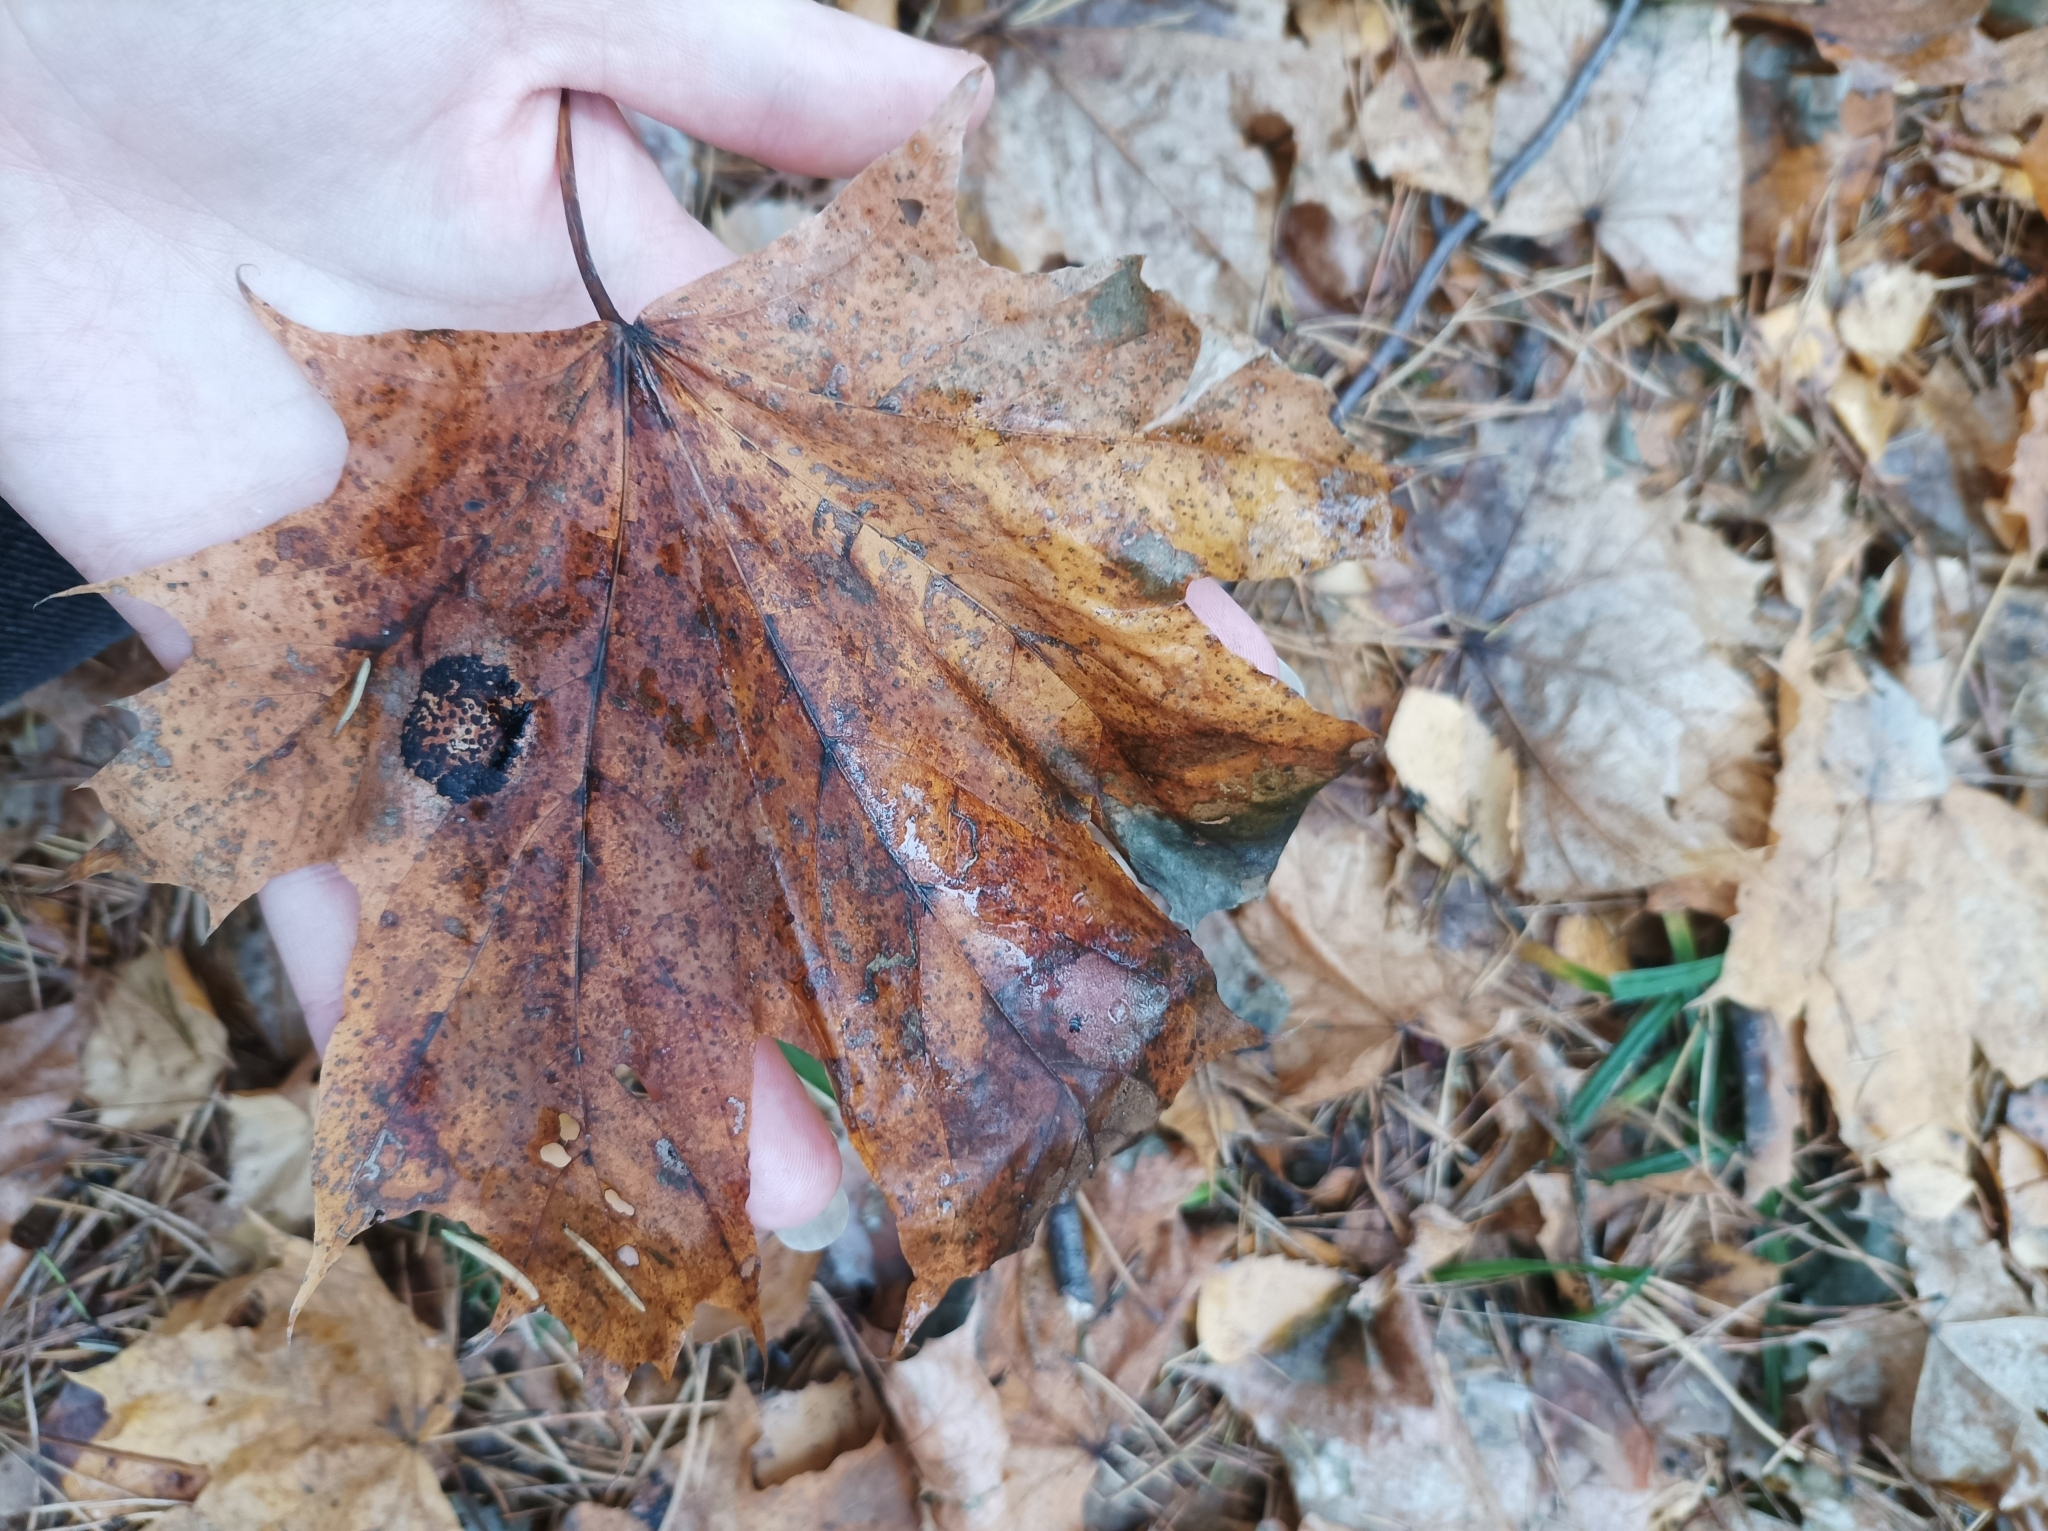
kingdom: Fungi
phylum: Ascomycota
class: Leotiomycetes
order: Rhytismatales
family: Rhytismataceae
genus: Rhytisma
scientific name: Rhytisma acerinum
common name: European tar spot
